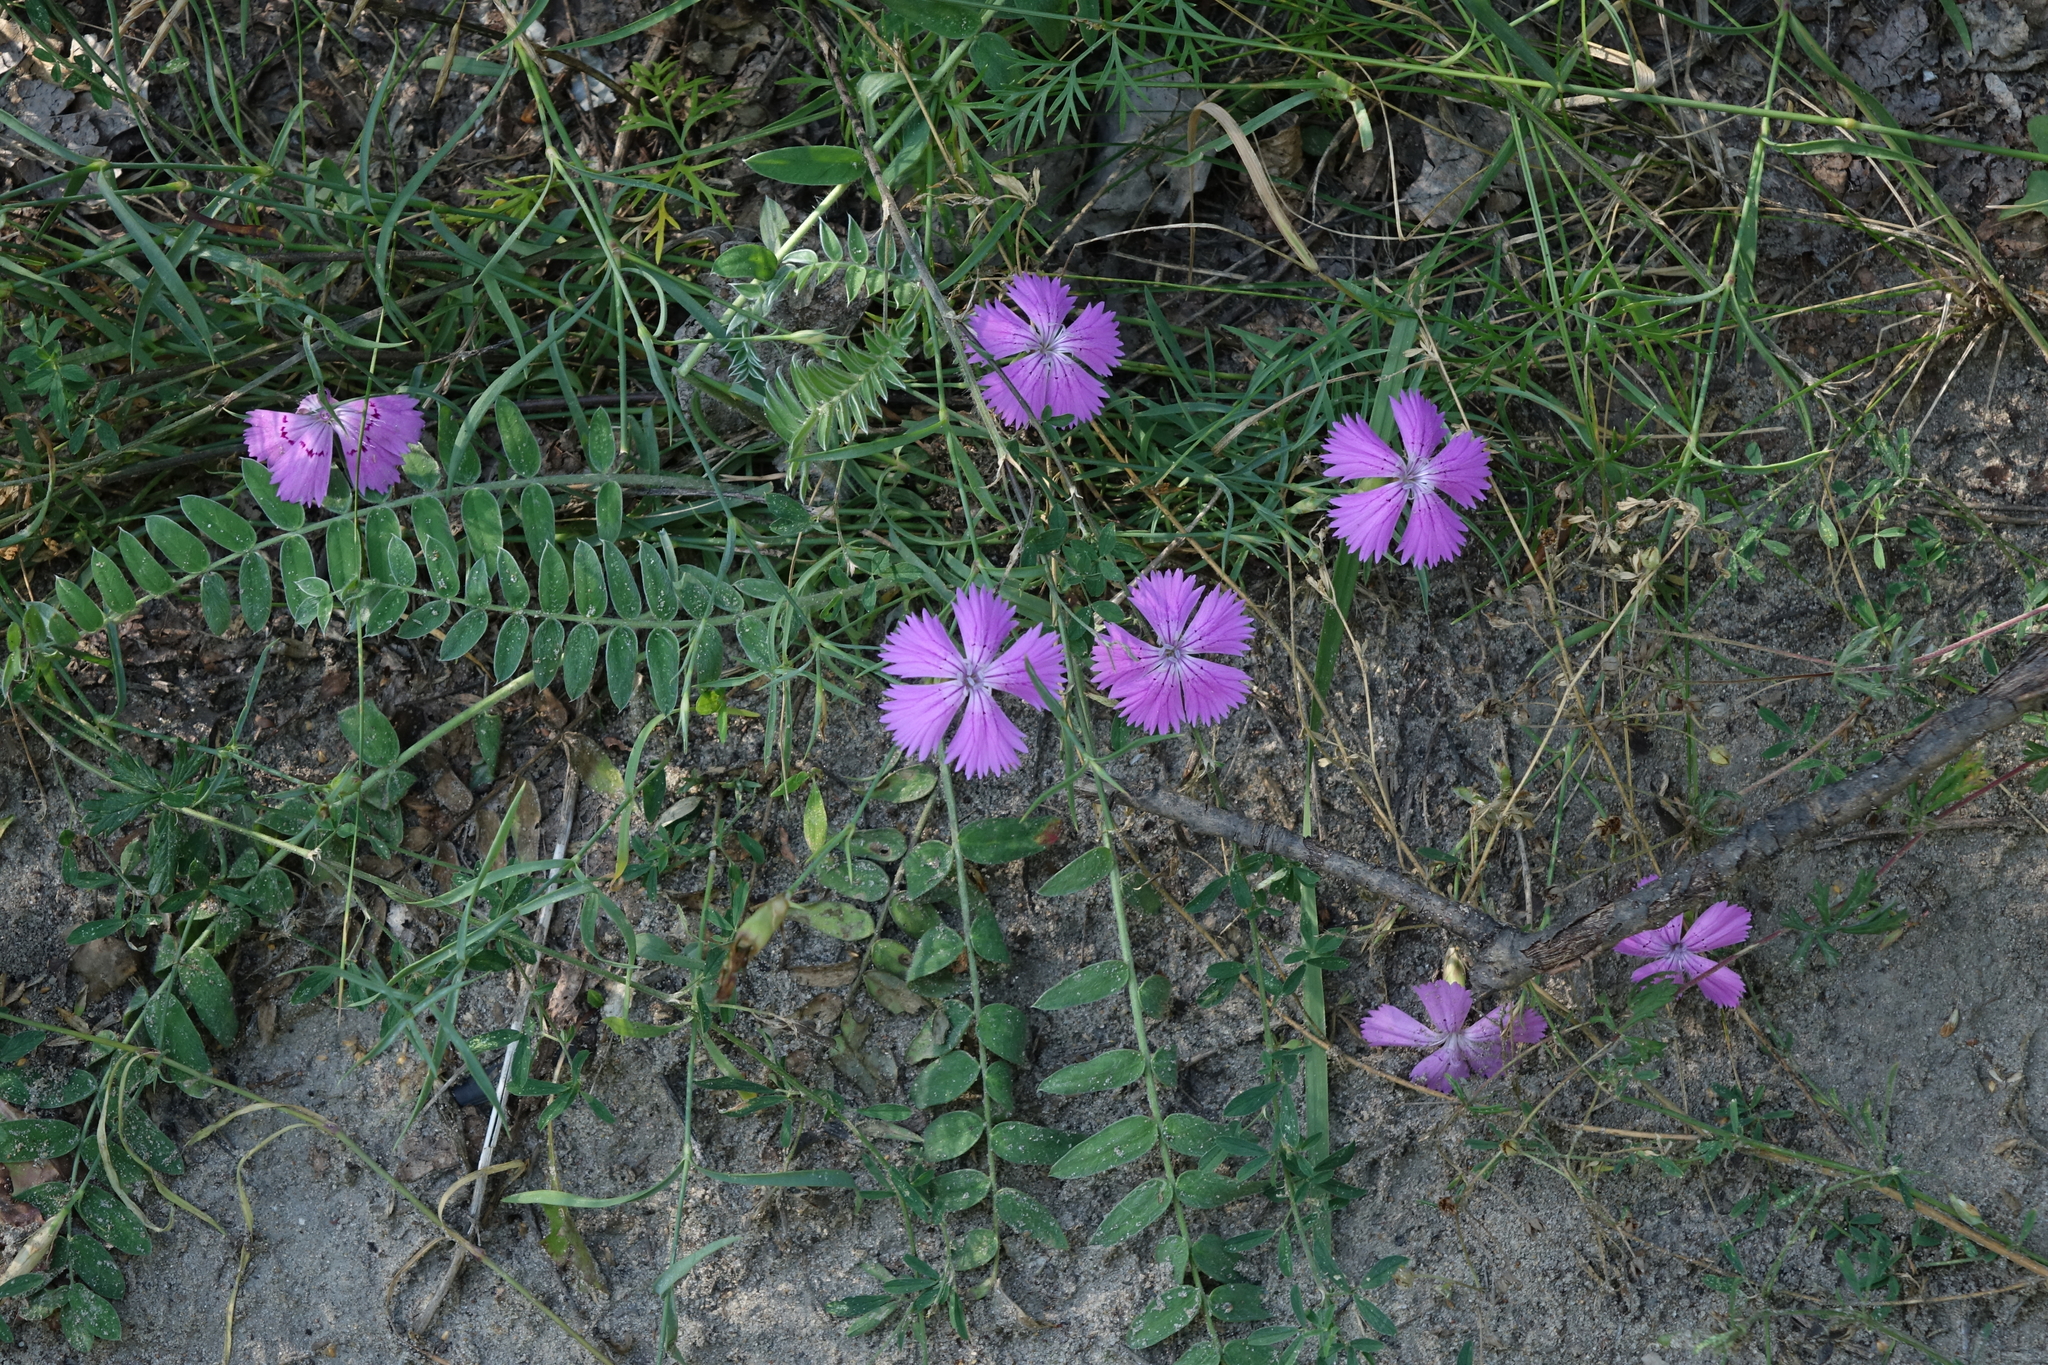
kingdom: Plantae
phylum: Tracheophyta
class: Magnoliopsida
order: Caryophyllales
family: Caryophyllaceae
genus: Dianthus
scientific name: Dianthus chinensis
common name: Rainbow pink
